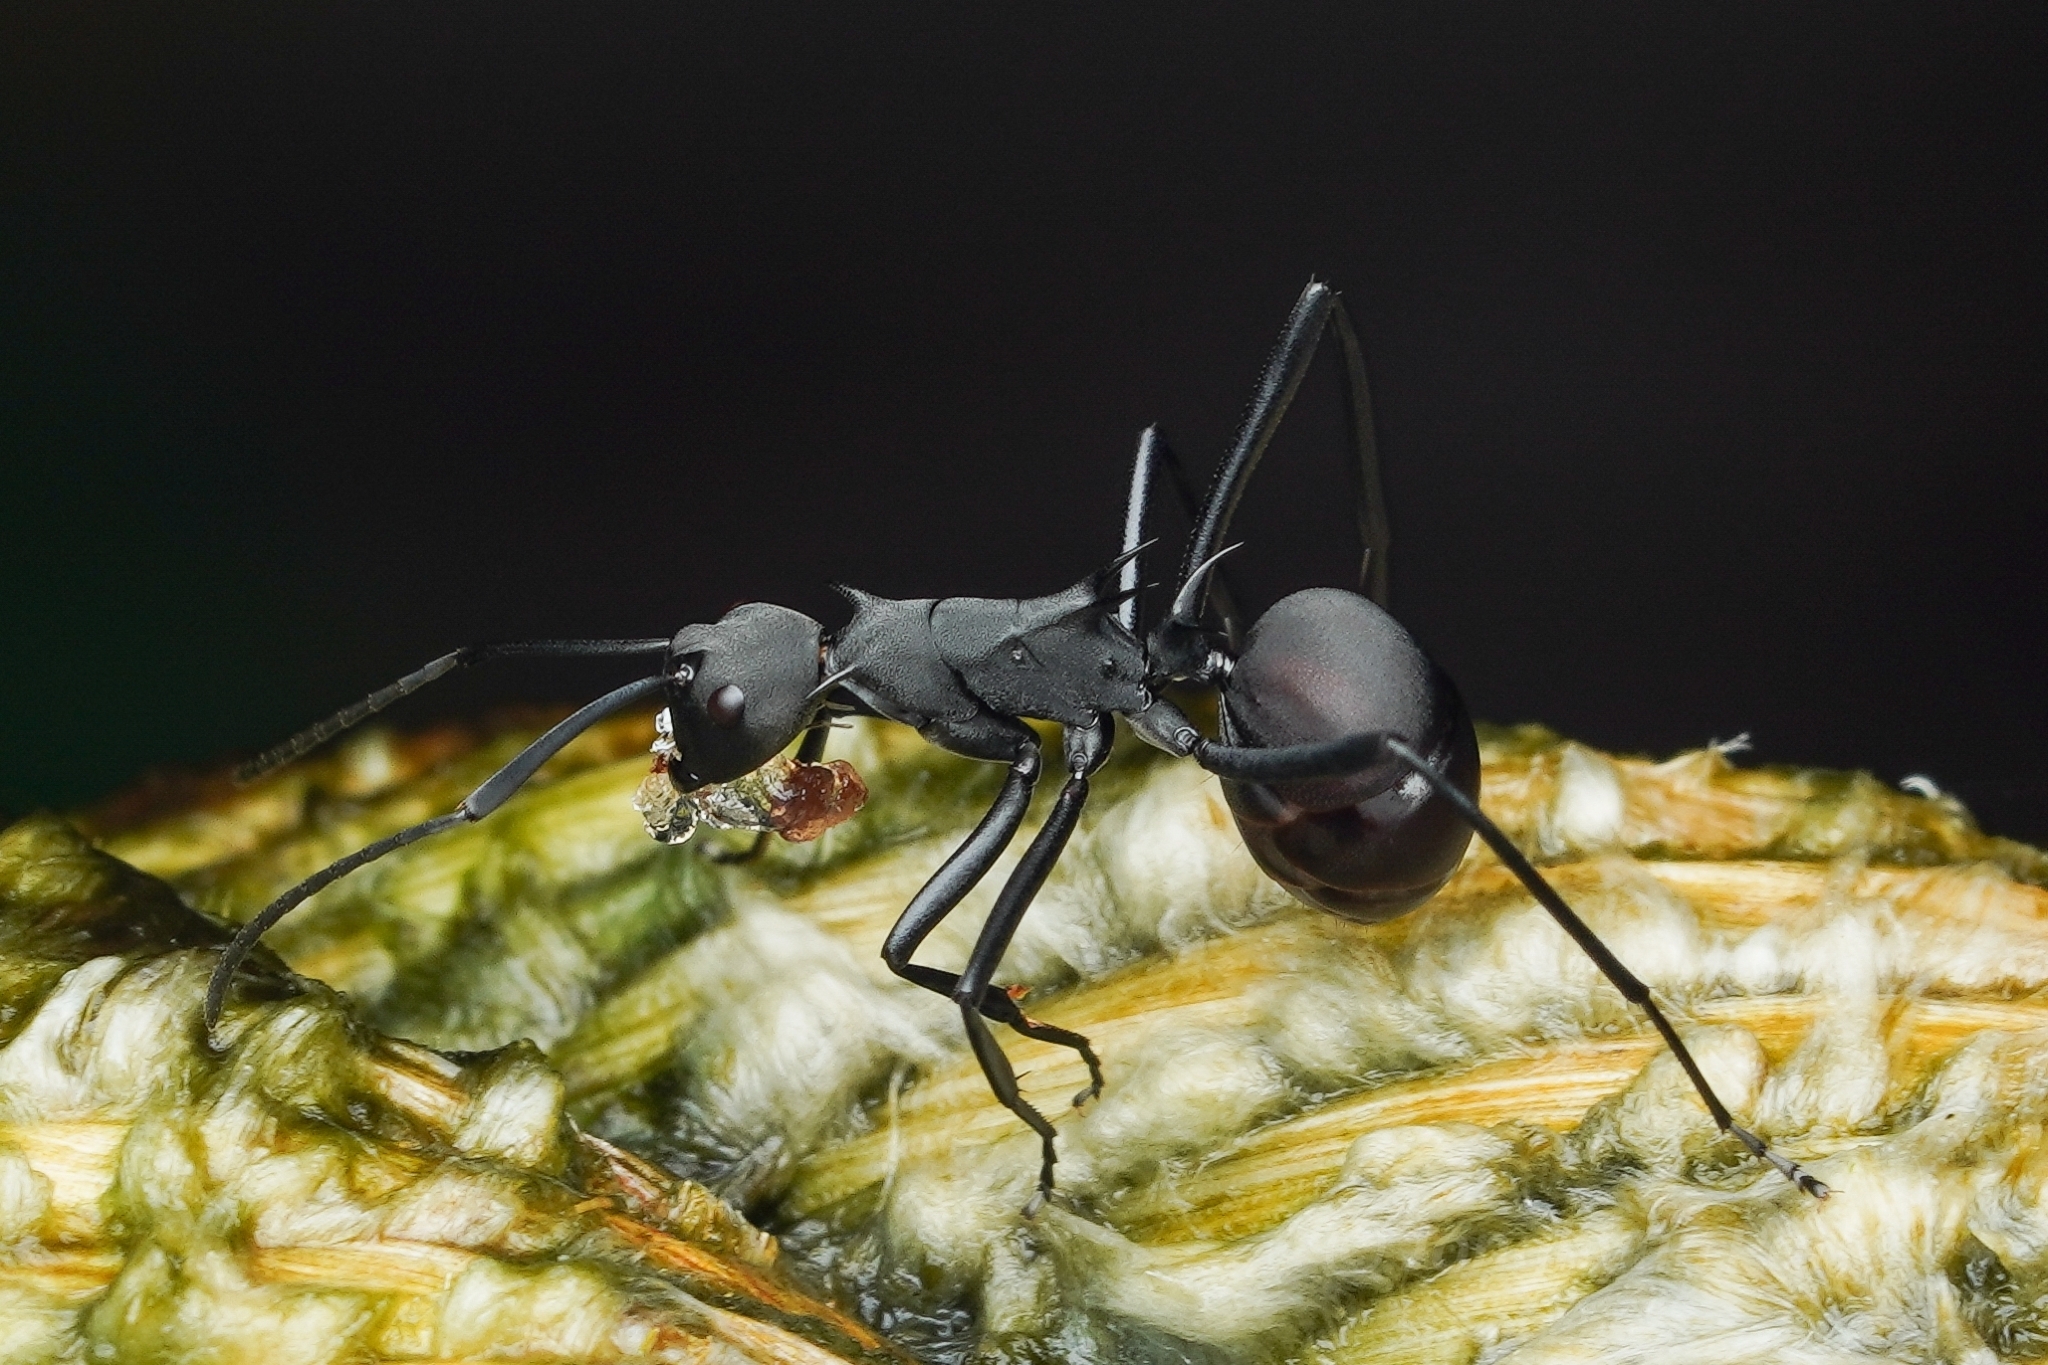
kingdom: Animalia
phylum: Arthropoda
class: Insecta
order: Hymenoptera
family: Formicidae
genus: Polyrhachis
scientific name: Polyrhachis abdominalis
